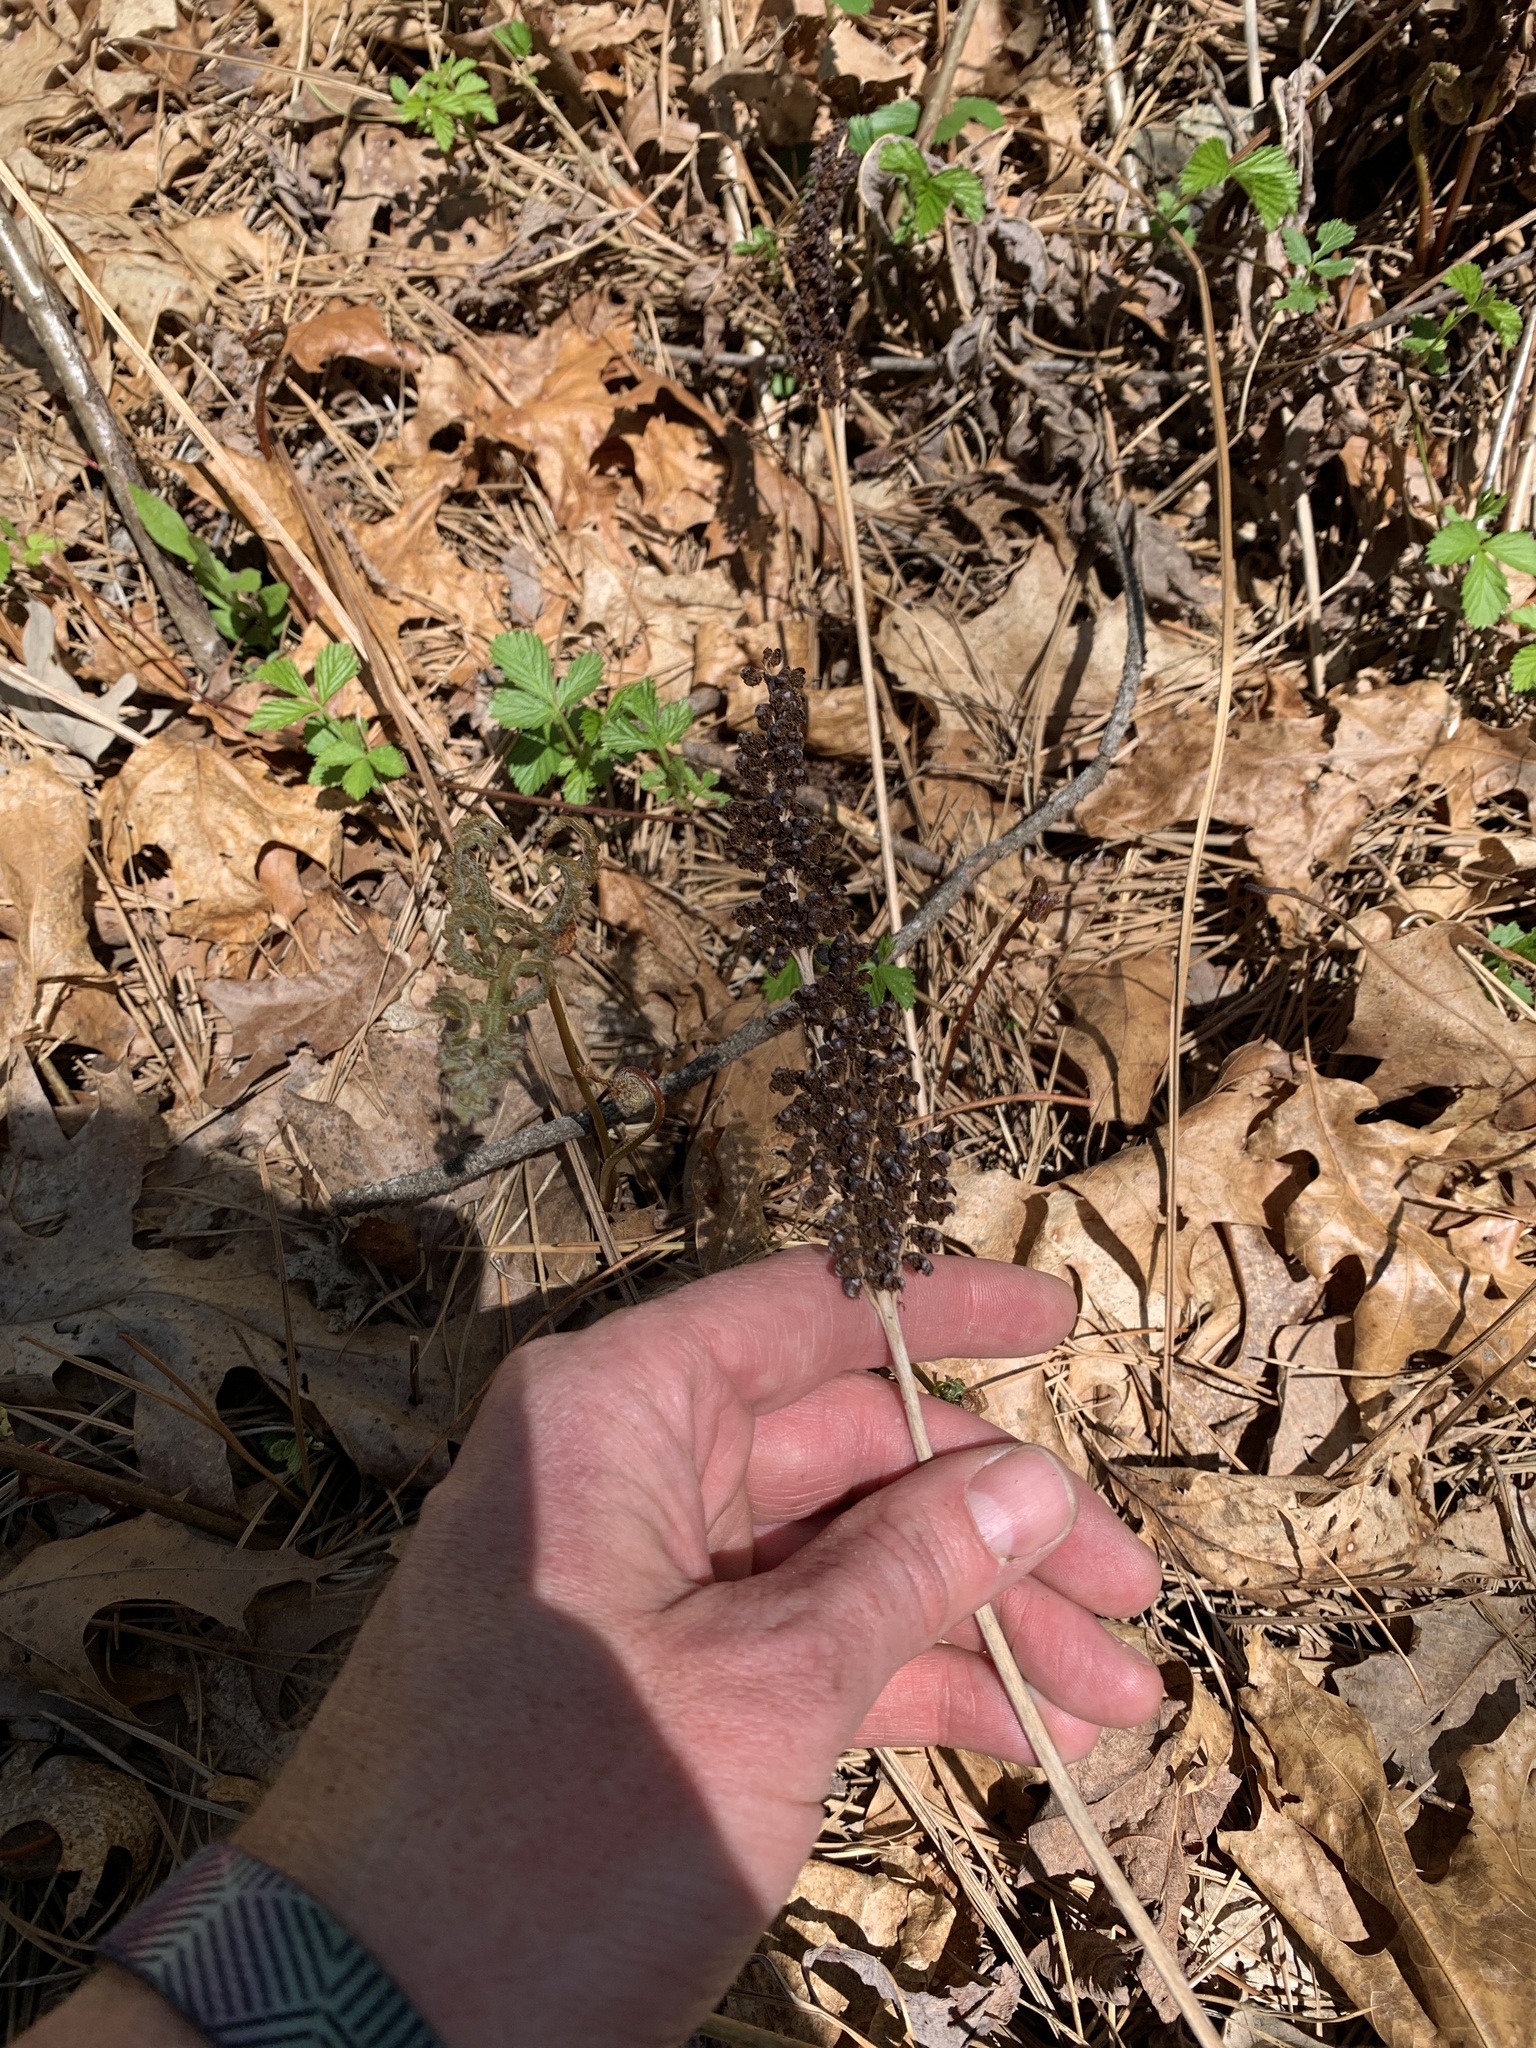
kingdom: Plantae
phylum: Tracheophyta
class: Polypodiopsida
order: Polypodiales
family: Onocleaceae
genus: Onoclea
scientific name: Onoclea sensibilis
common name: Sensitive fern
